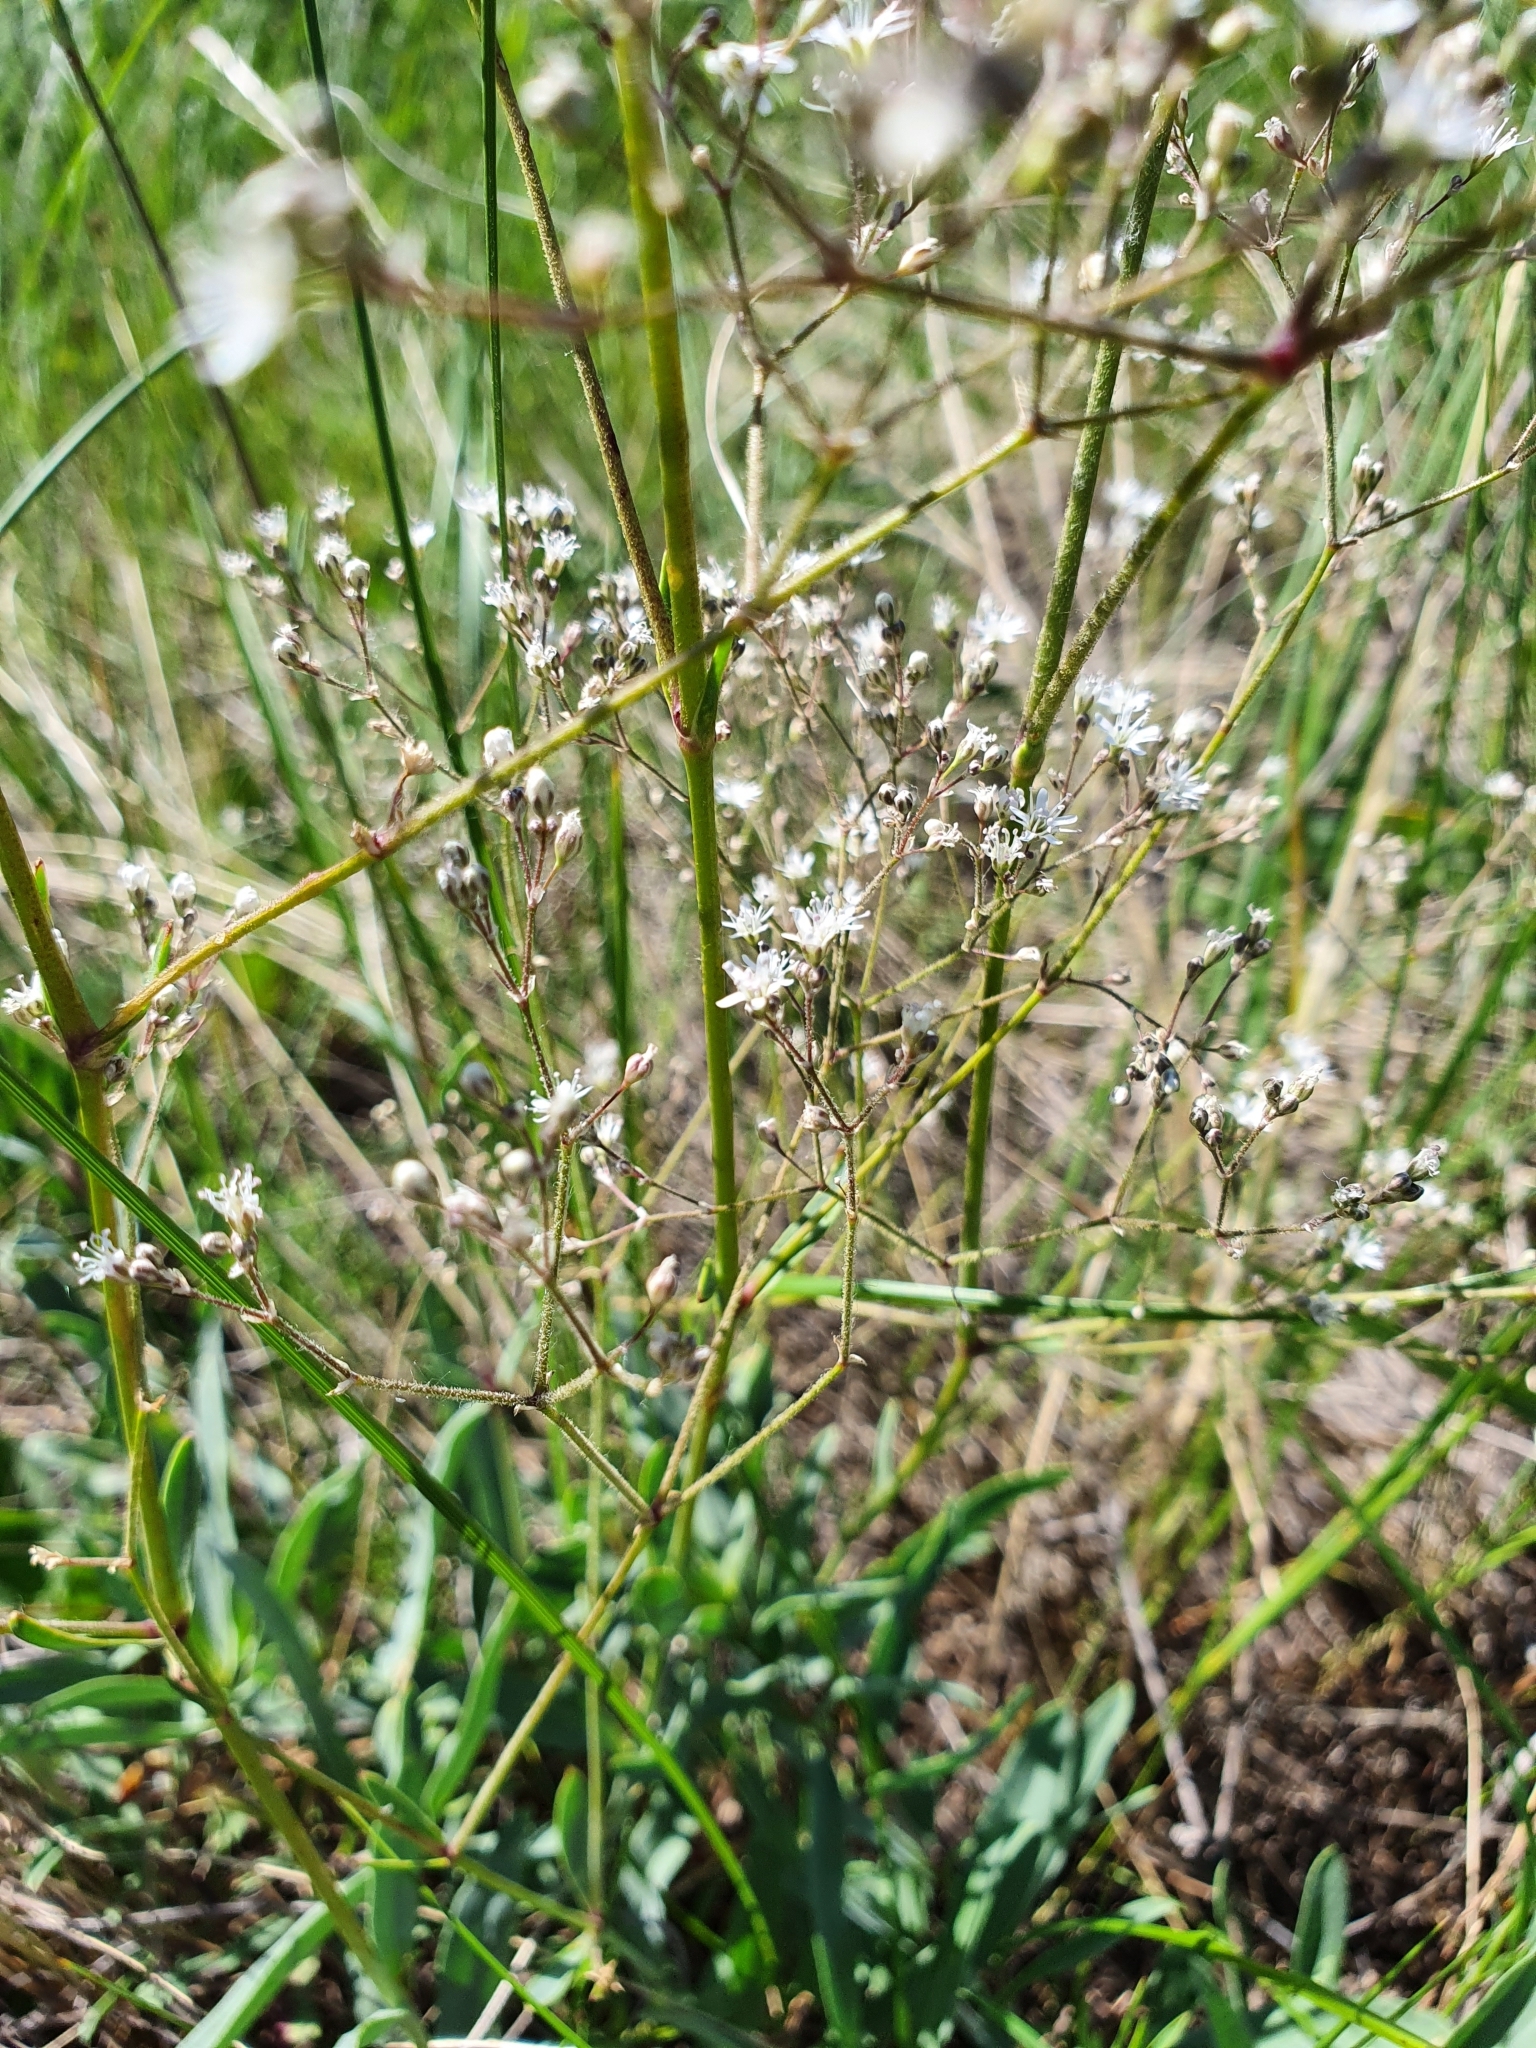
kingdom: Plantae
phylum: Tracheophyta
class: Magnoliopsida
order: Caryophyllales
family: Caryophyllaceae
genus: Gypsophila
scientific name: Gypsophila altissima
